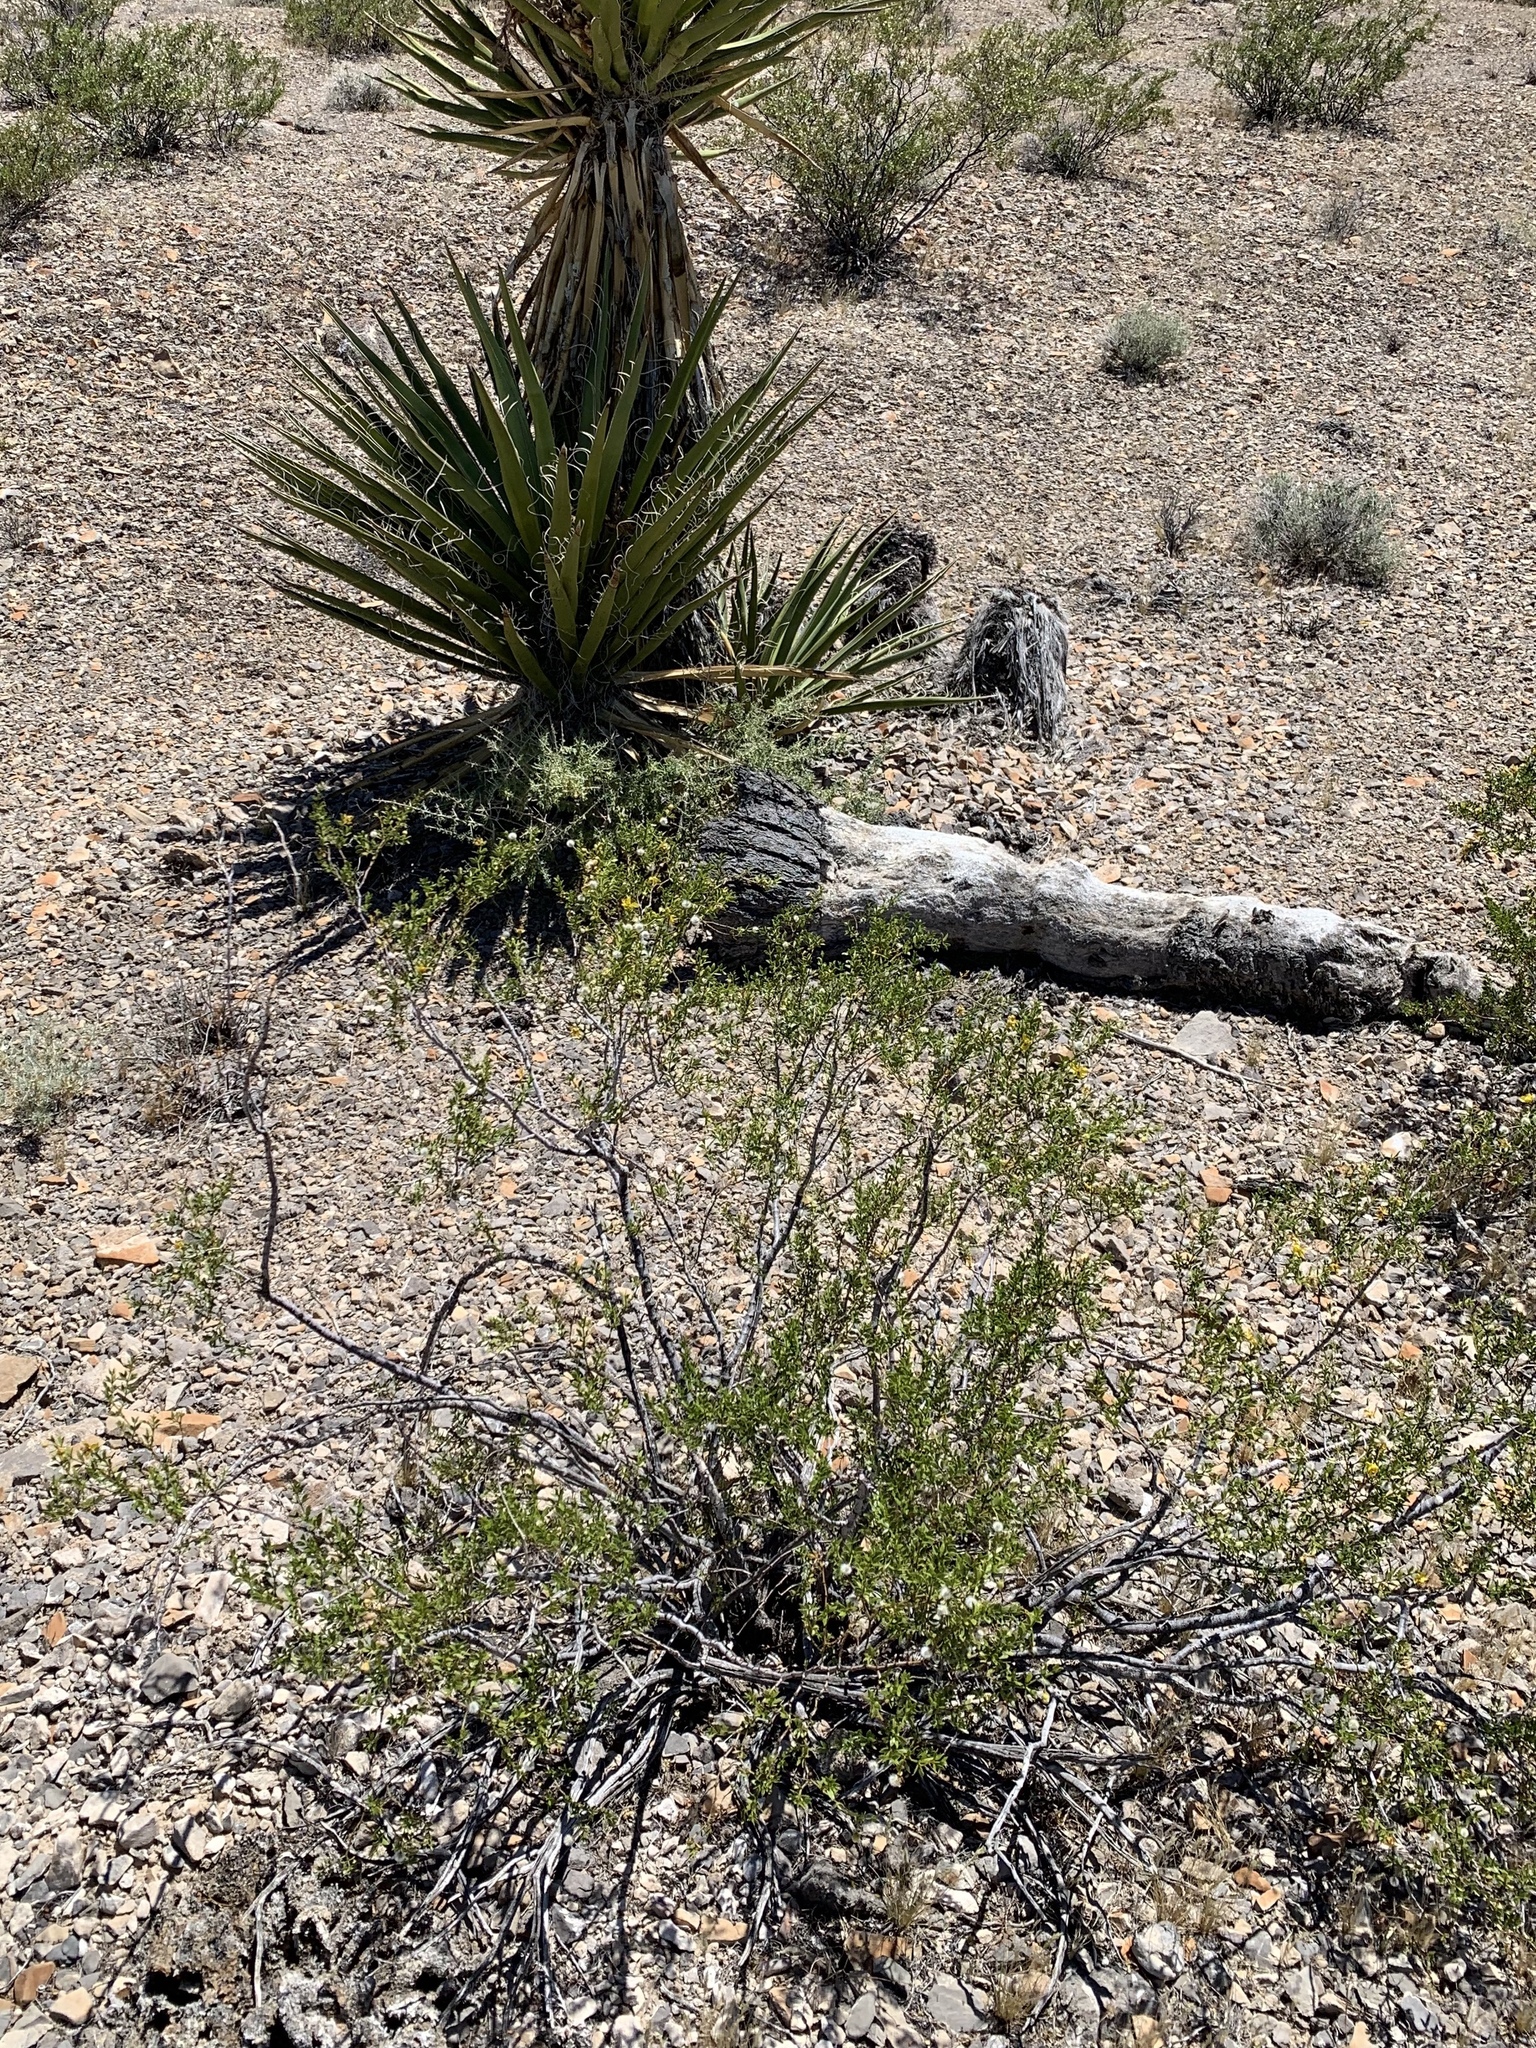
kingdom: Plantae
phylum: Tracheophyta
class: Magnoliopsida
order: Zygophyllales
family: Zygophyllaceae
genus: Larrea
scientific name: Larrea tridentata
